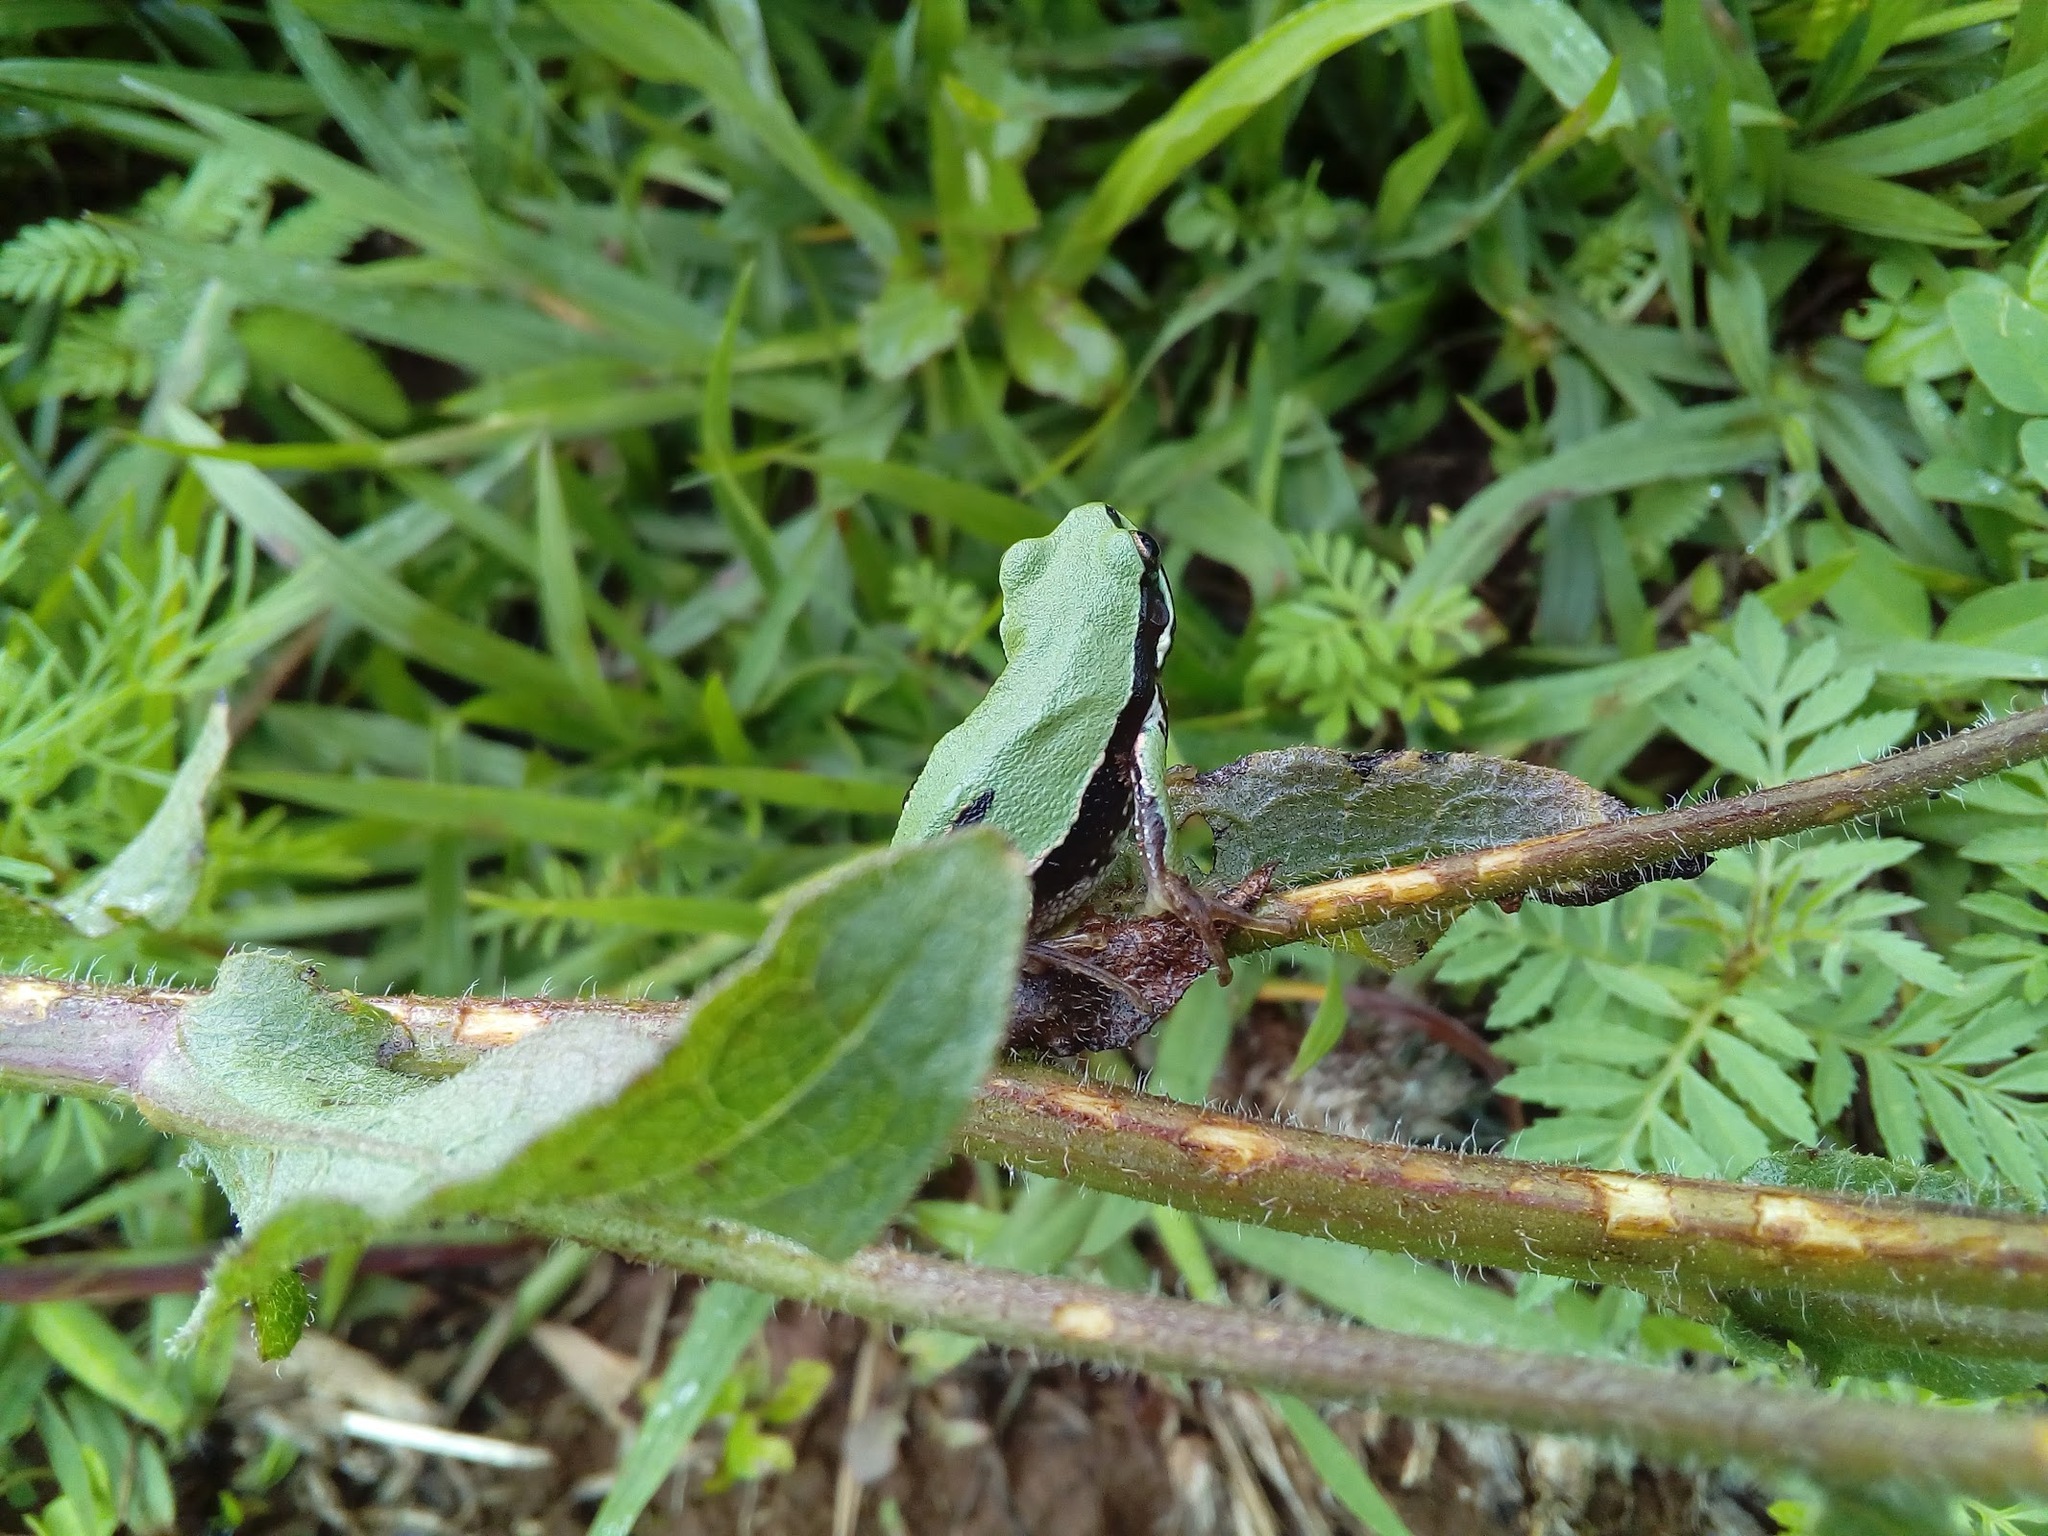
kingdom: Animalia
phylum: Chordata
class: Amphibia
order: Anura
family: Hylidae
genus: Dryophytes
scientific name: Dryophytes eximius
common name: Mountain treefrog
